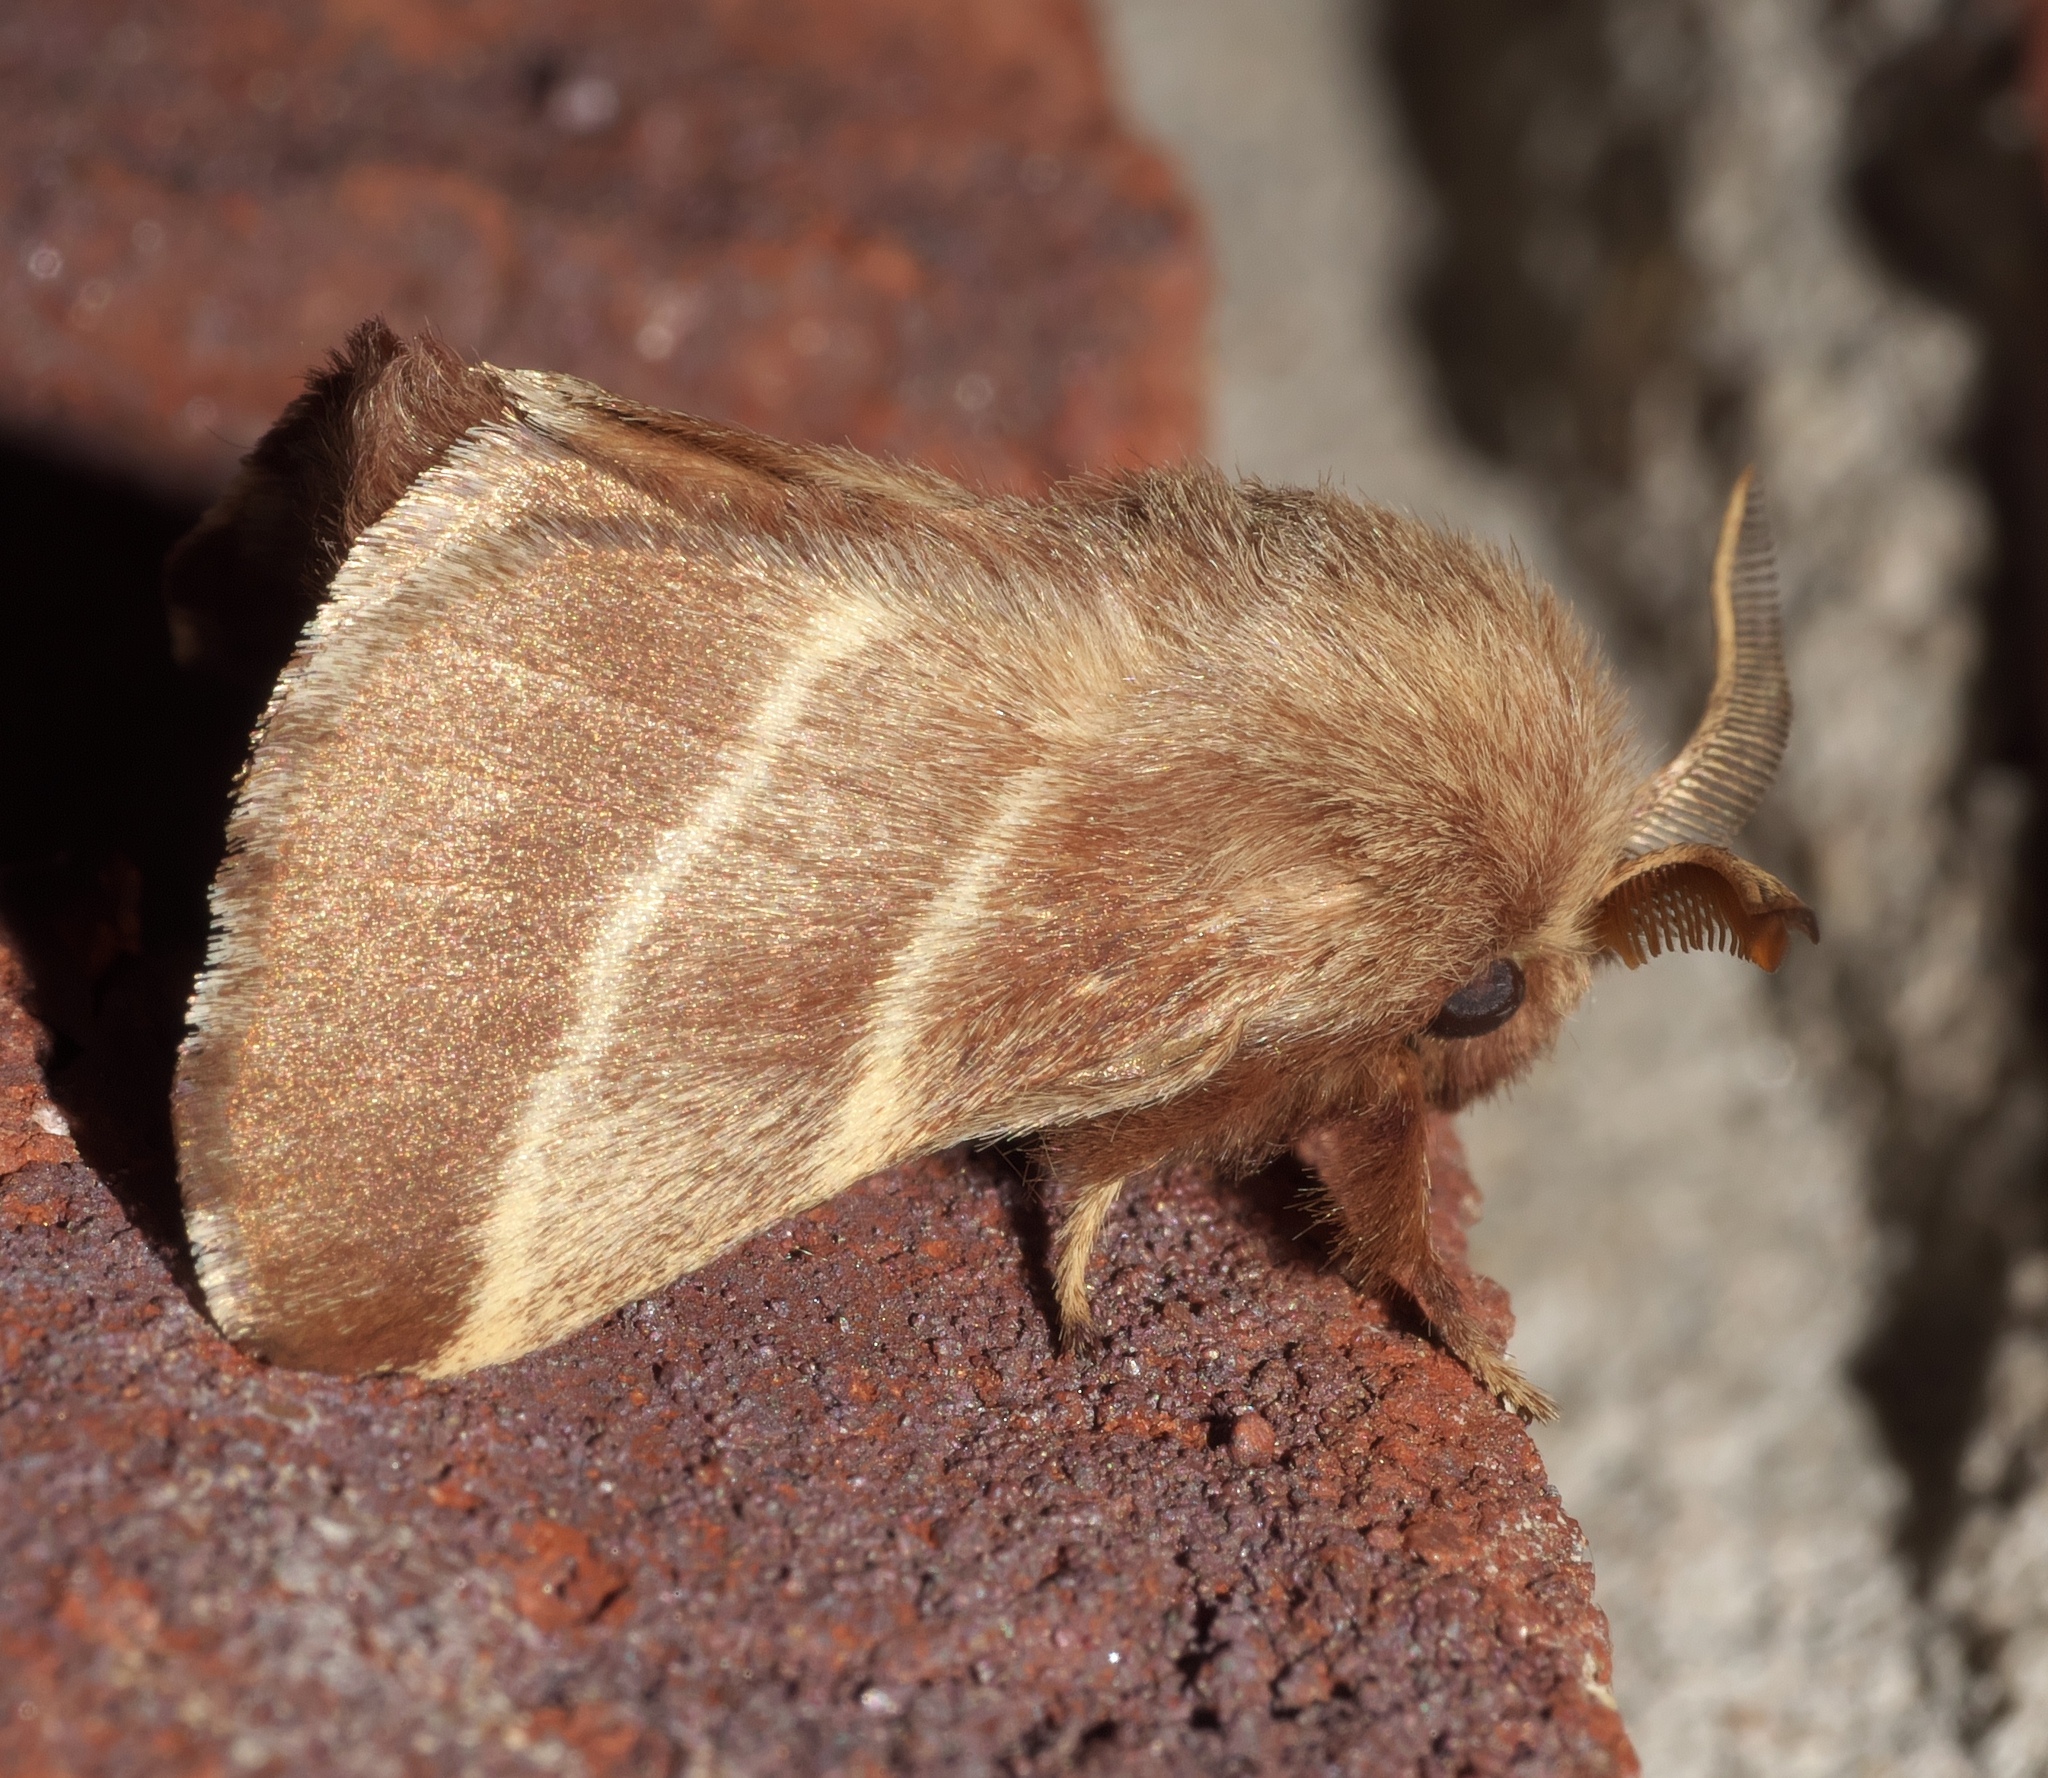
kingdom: Animalia
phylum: Arthropoda
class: Insecta
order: Lepidoptera
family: Lasiocampidae
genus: Malacosoma
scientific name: Malacosoma americana
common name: Eastern tent caterpillar moth
